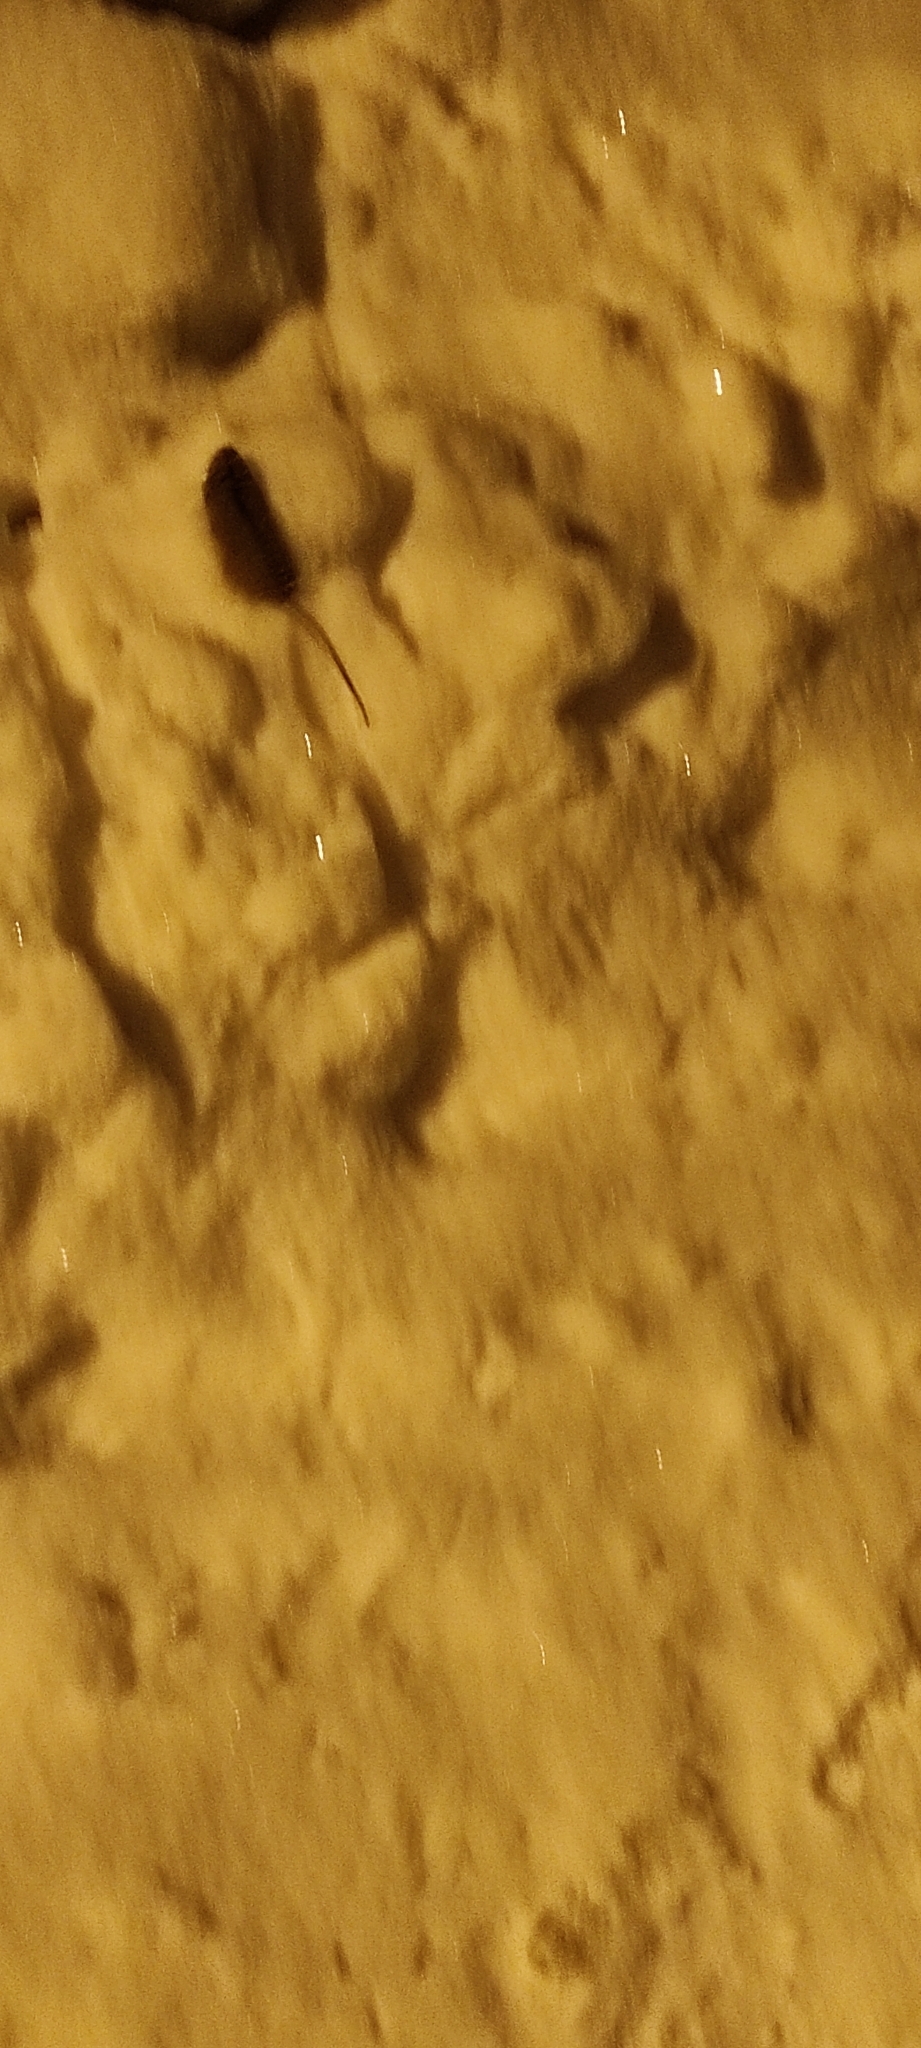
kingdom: Animalia
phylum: Chordata
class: Mammalia
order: Rodentia
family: Muridae
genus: Apodemus
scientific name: Apodemus agrarius
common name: Striped field mouse
